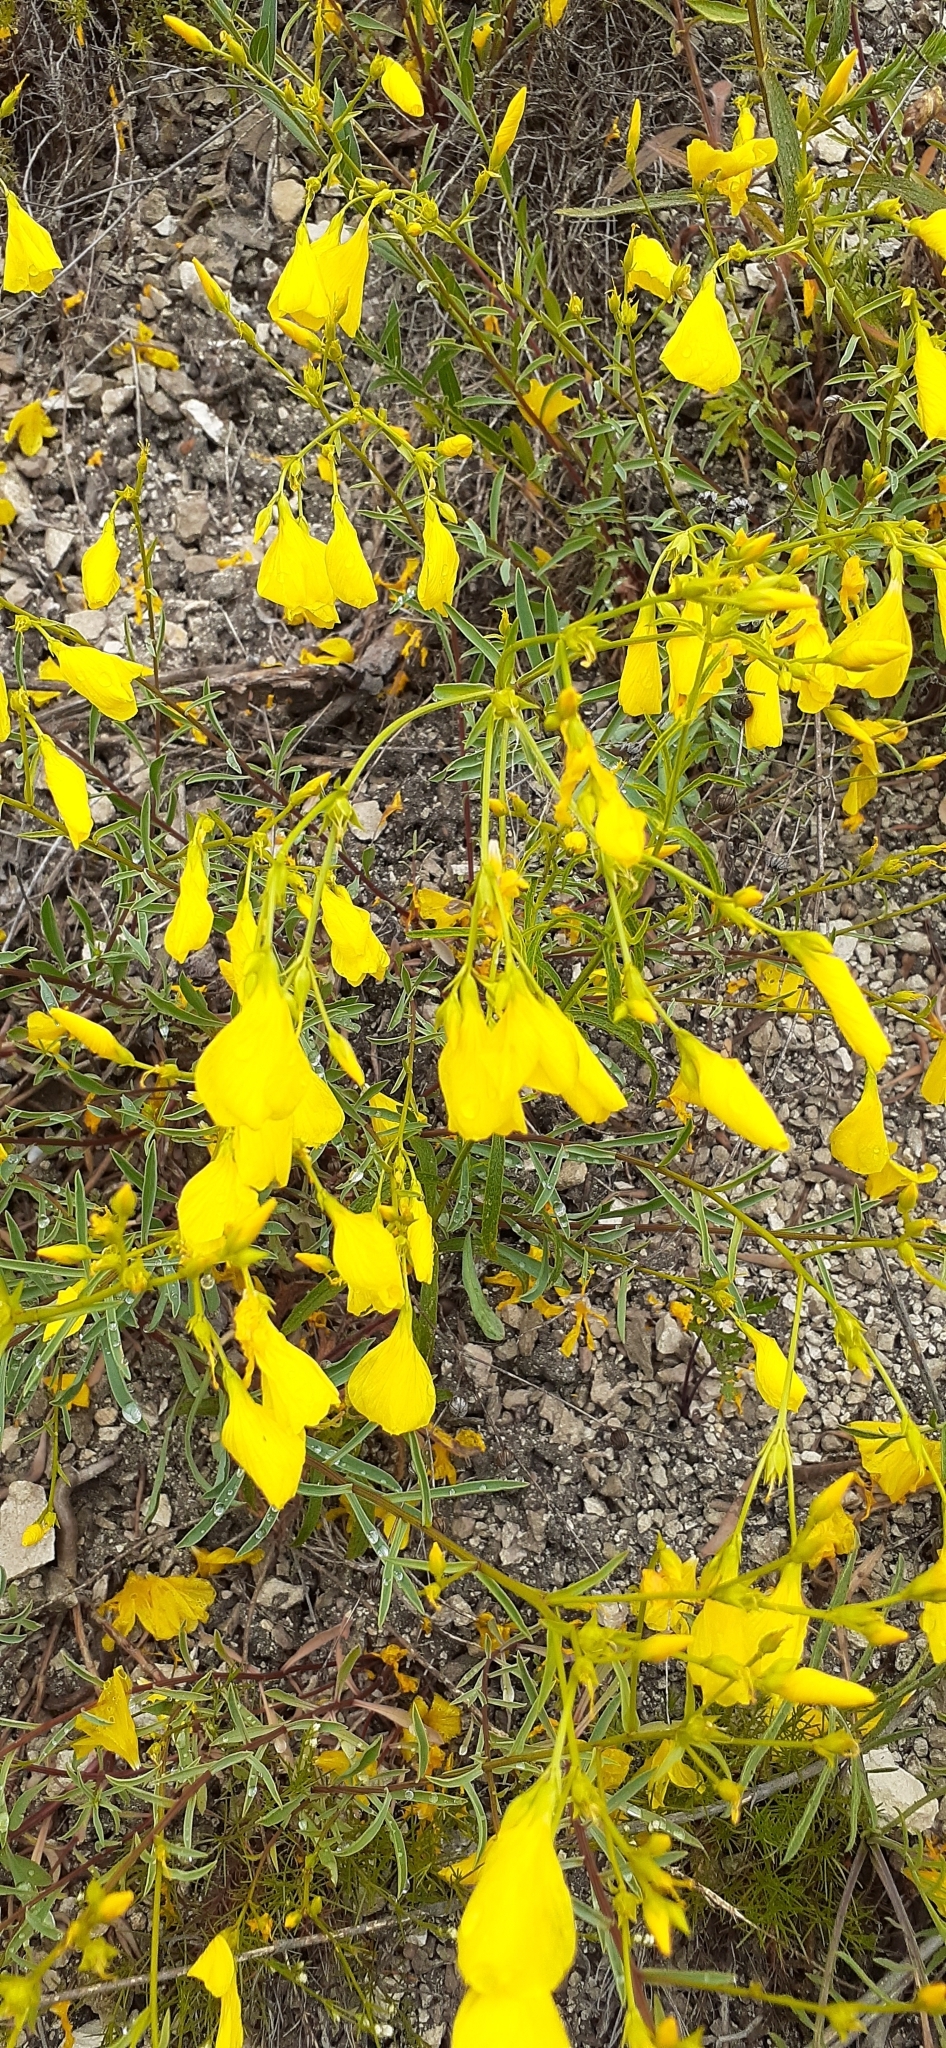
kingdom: Plantae
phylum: Tracheophyta
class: Magnoliopsida
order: Malpighiales
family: Linaceae
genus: Linum
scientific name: Linum ucranicum
